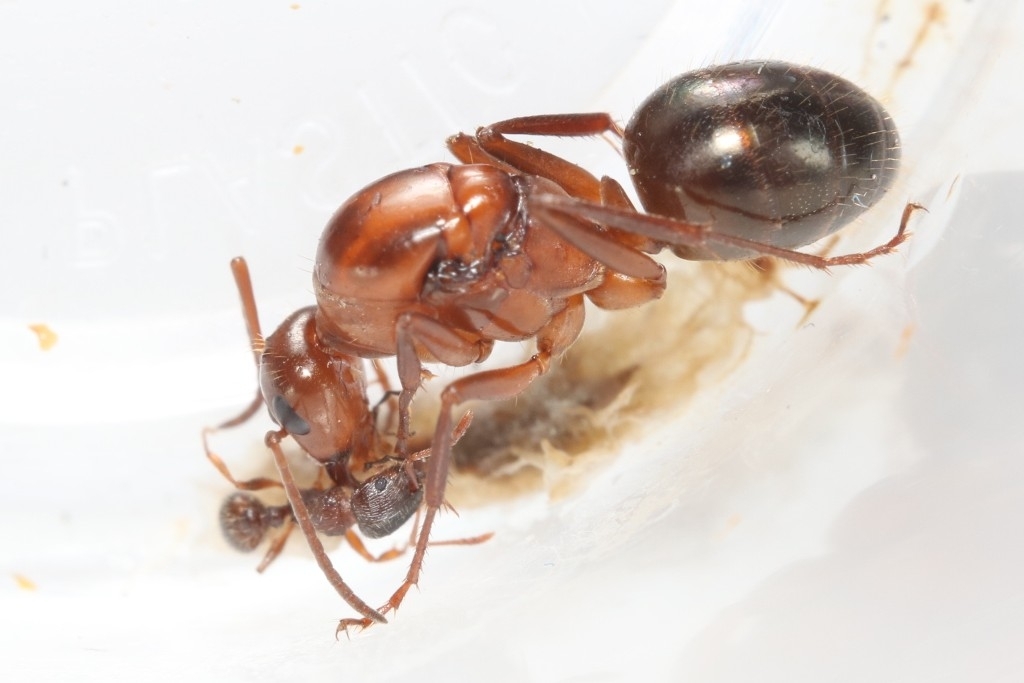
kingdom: Animalia
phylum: Arthropoda
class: Insecta
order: Hymenoptera
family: Formicidae
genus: Formica
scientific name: Formica incerta
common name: Uncertain field ant
